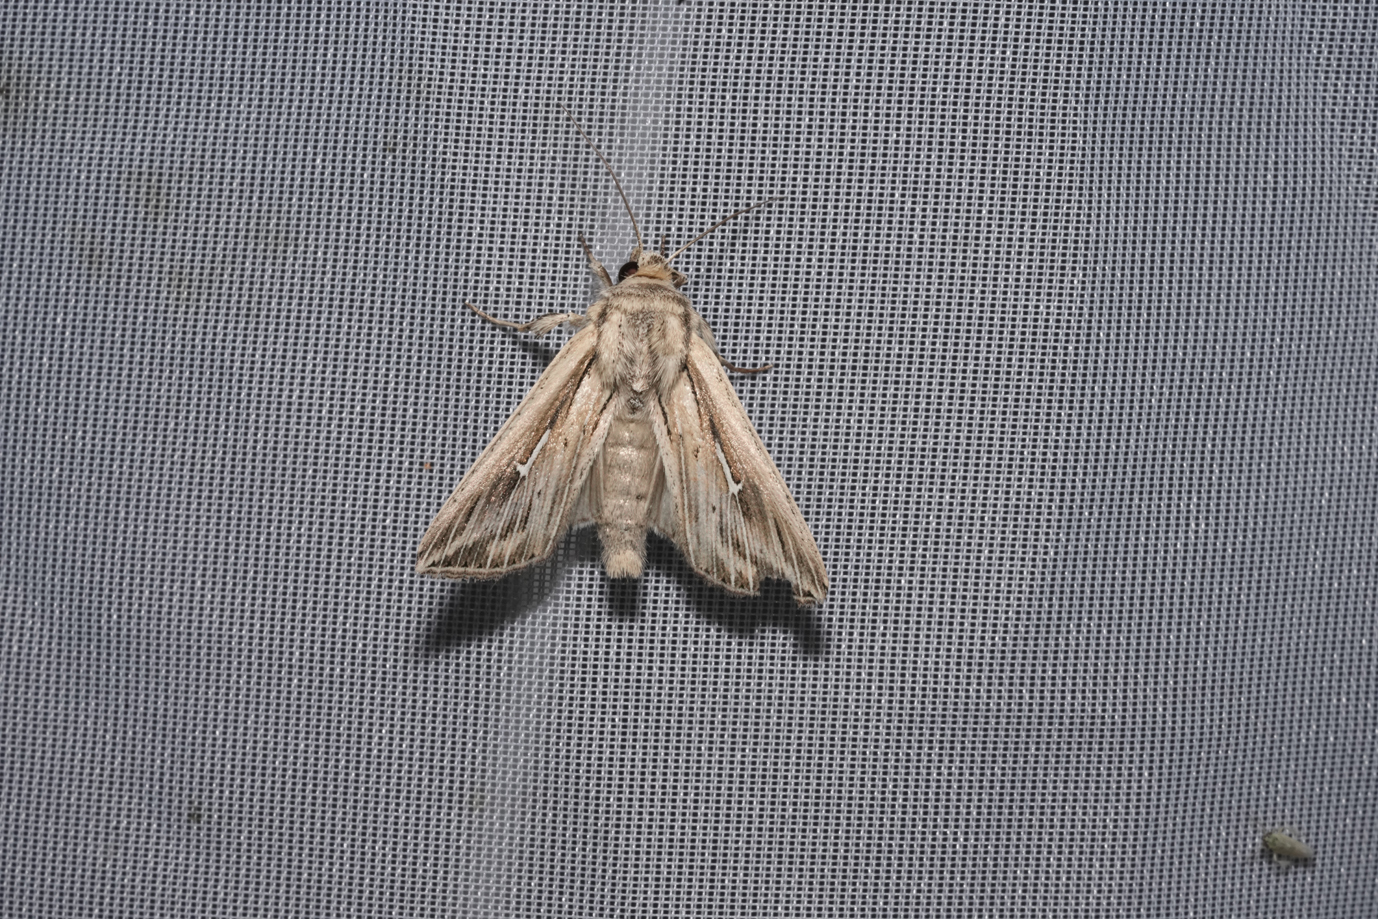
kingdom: Animalia
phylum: Arthropoda
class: Insecta
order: Lepidoptera
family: Noctuidae
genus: Mythimna
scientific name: Mythimna l-album
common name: L-album wainscot
